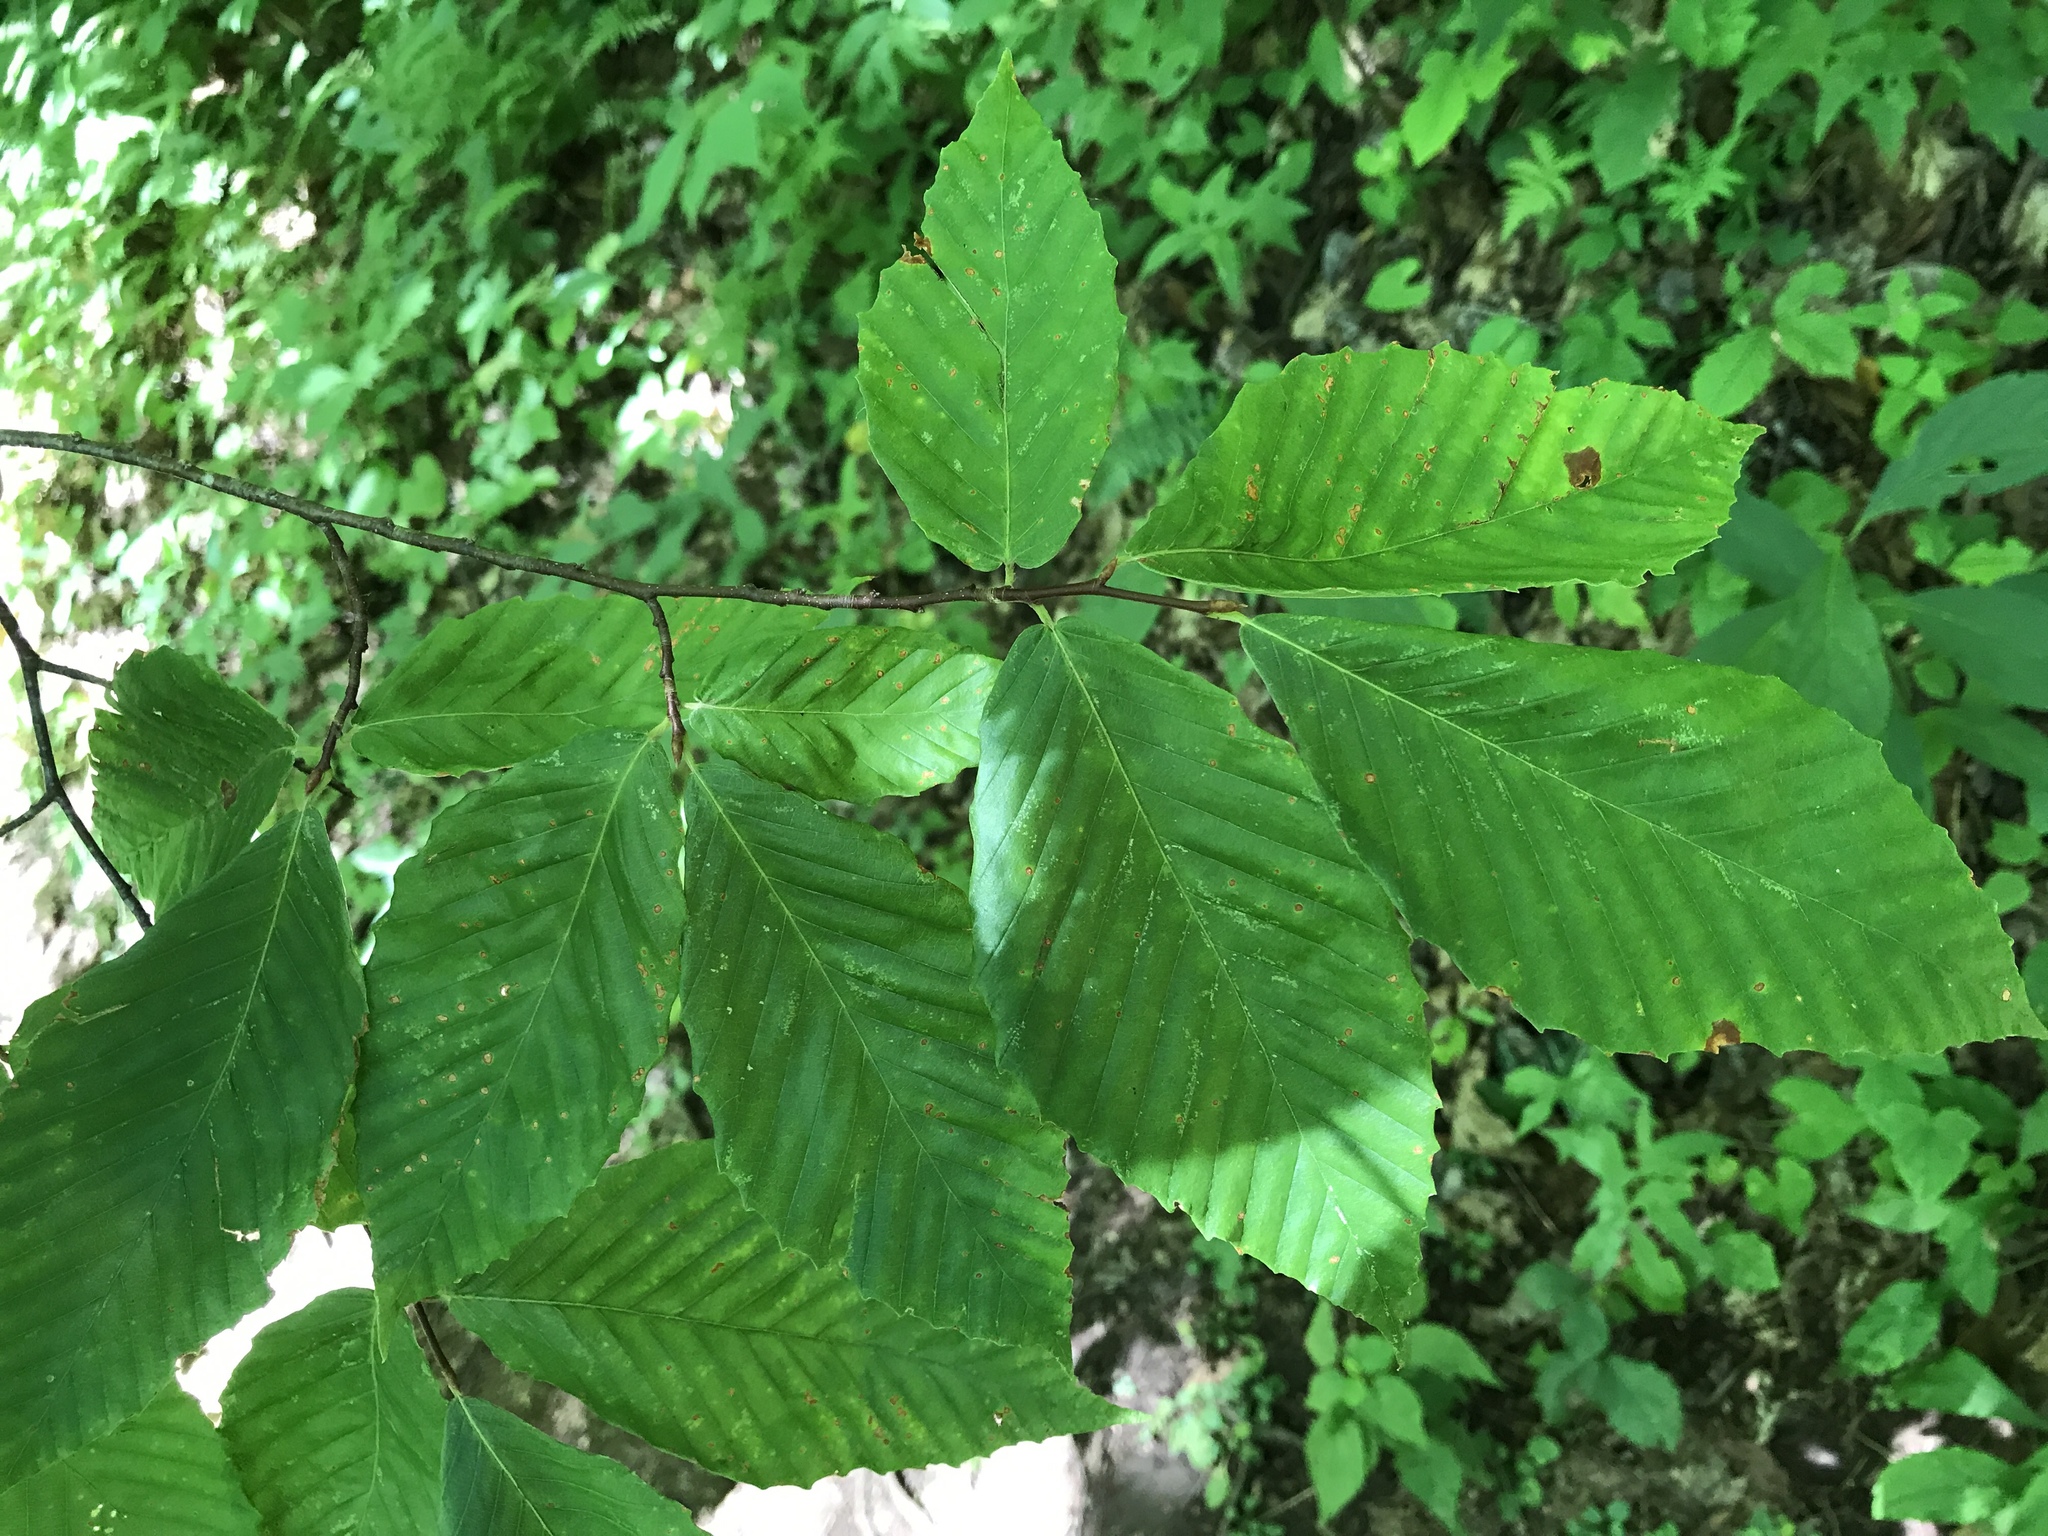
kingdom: Plantae
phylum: Tracheophyta
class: Magnoliopsida
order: Fagales
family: Fagaceae
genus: Fagus
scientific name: Fagus grandifolia
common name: American beech
